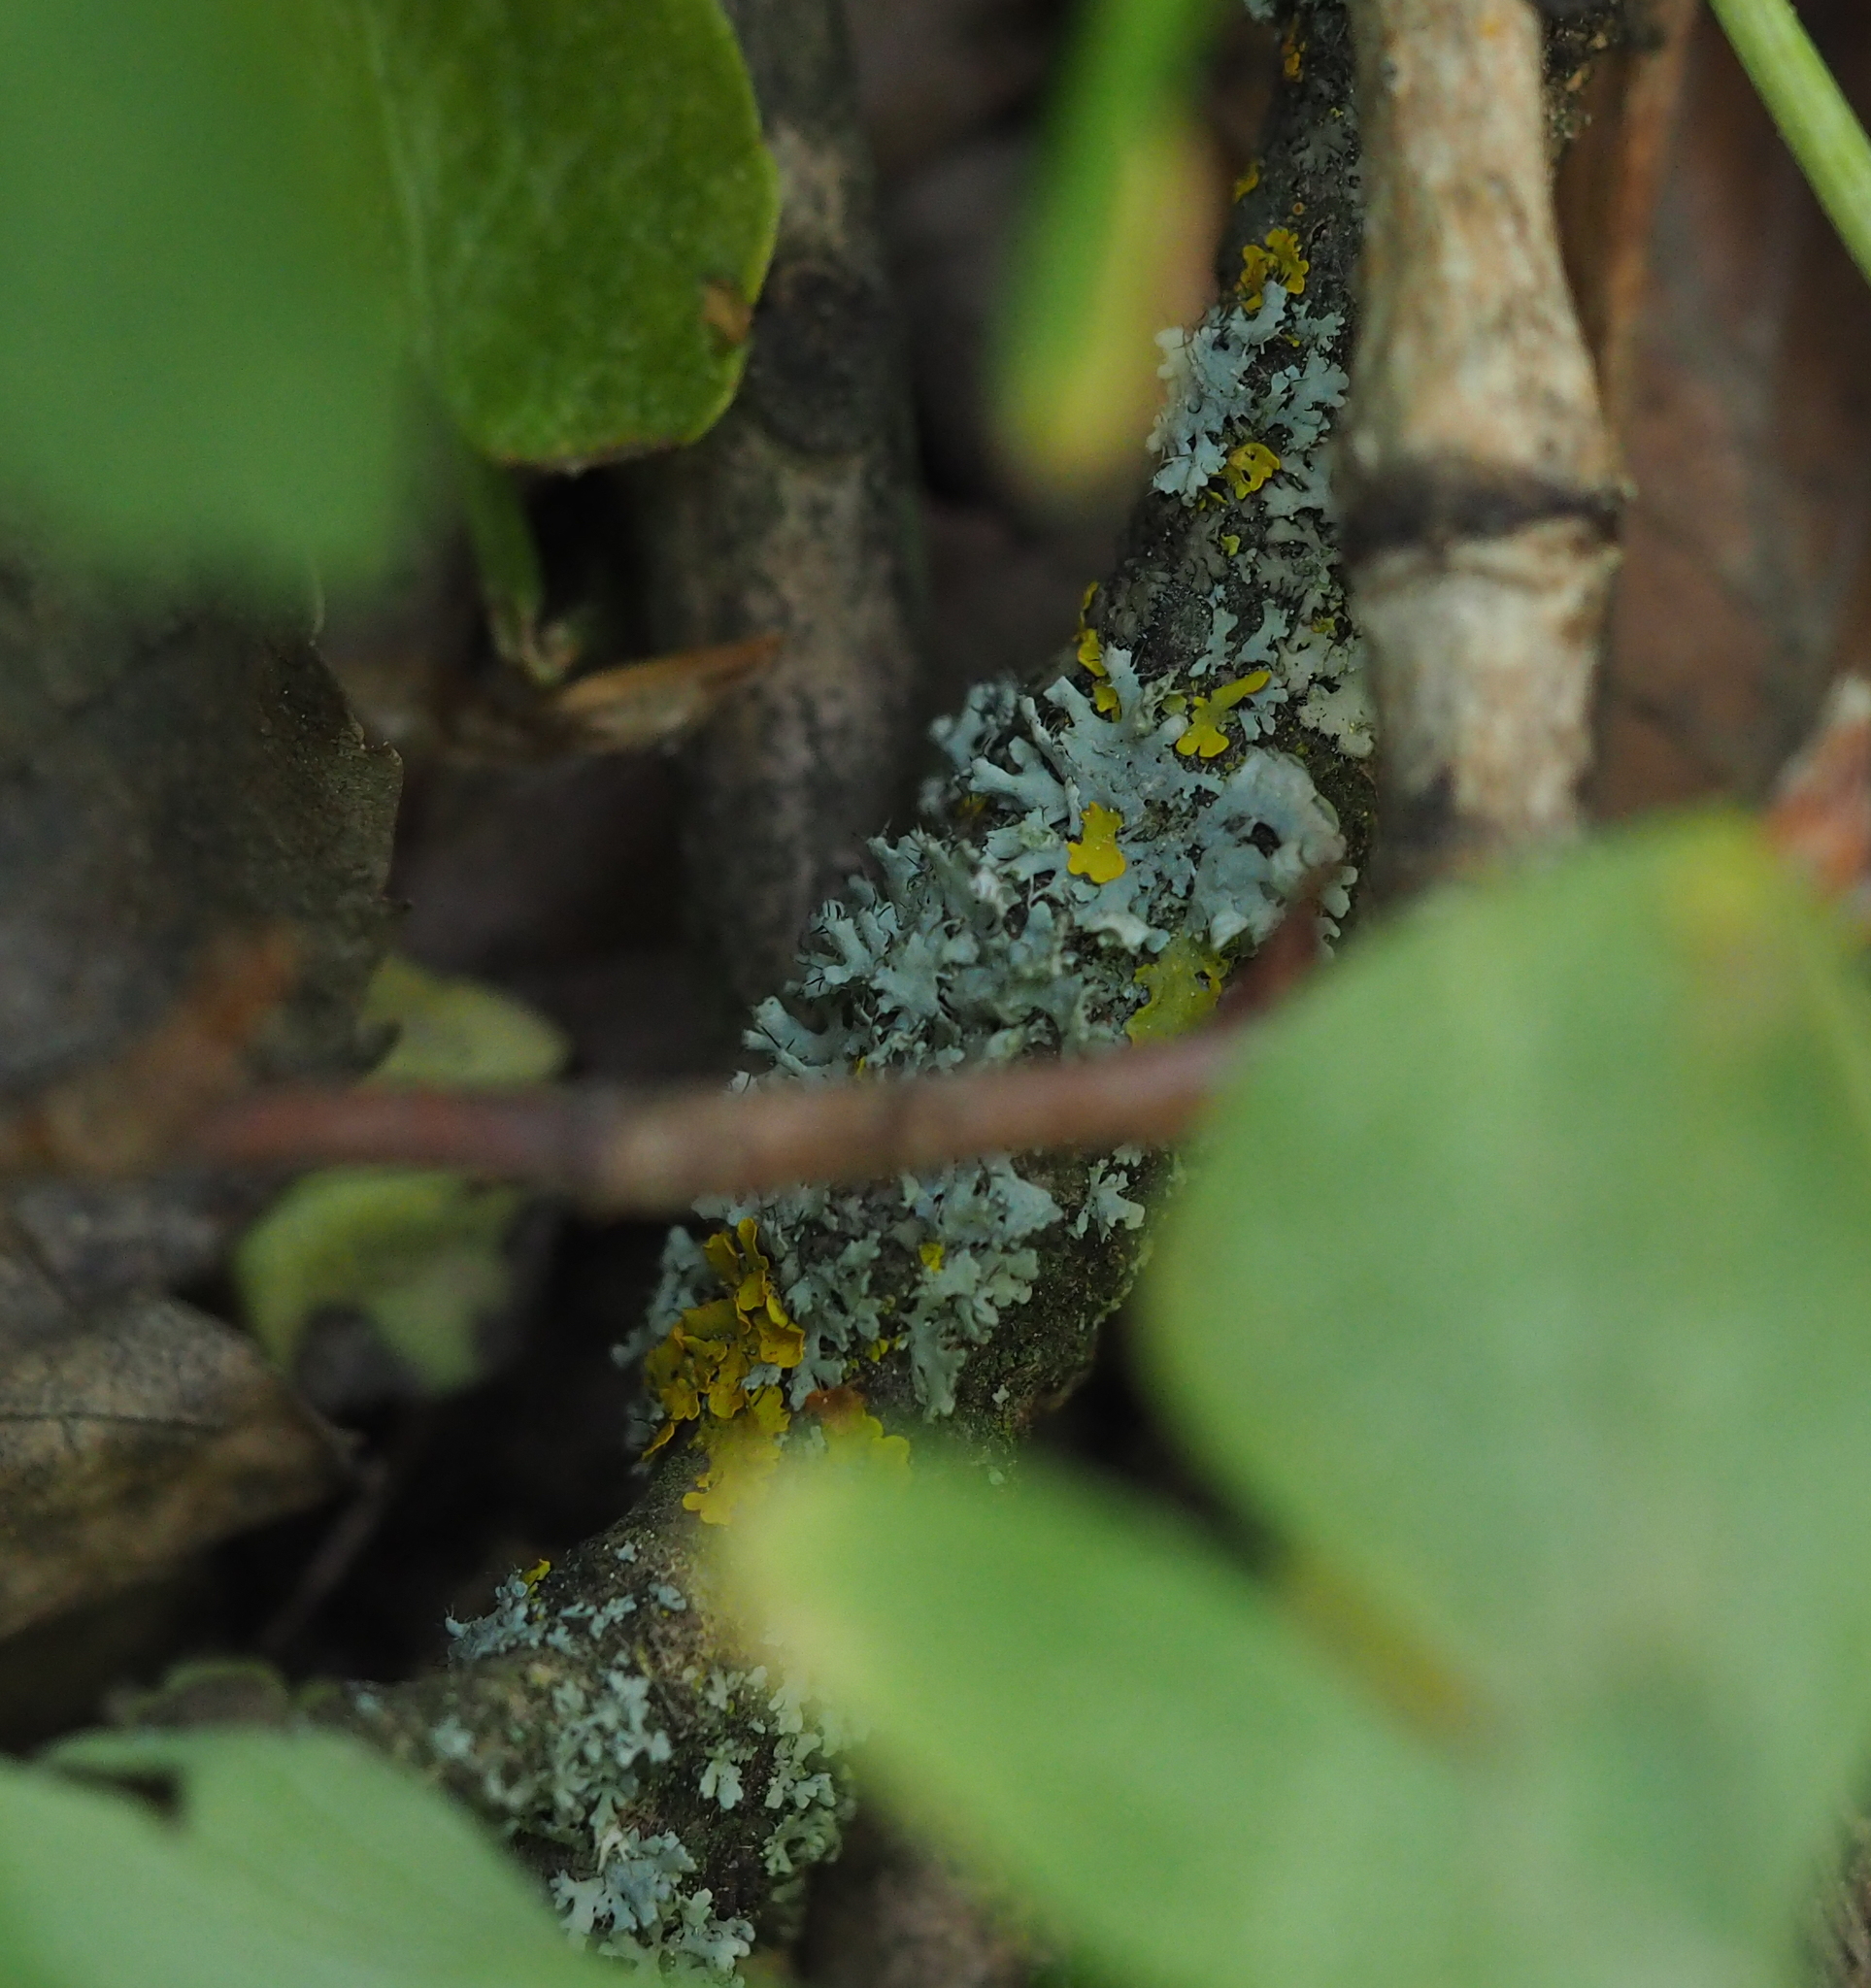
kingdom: Fungi
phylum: Ascomycota
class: Lecanoromycetes
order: Caliciales
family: Physciaceae
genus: Physcia
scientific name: Physcia adscendens
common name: Hooded rosette lichen
